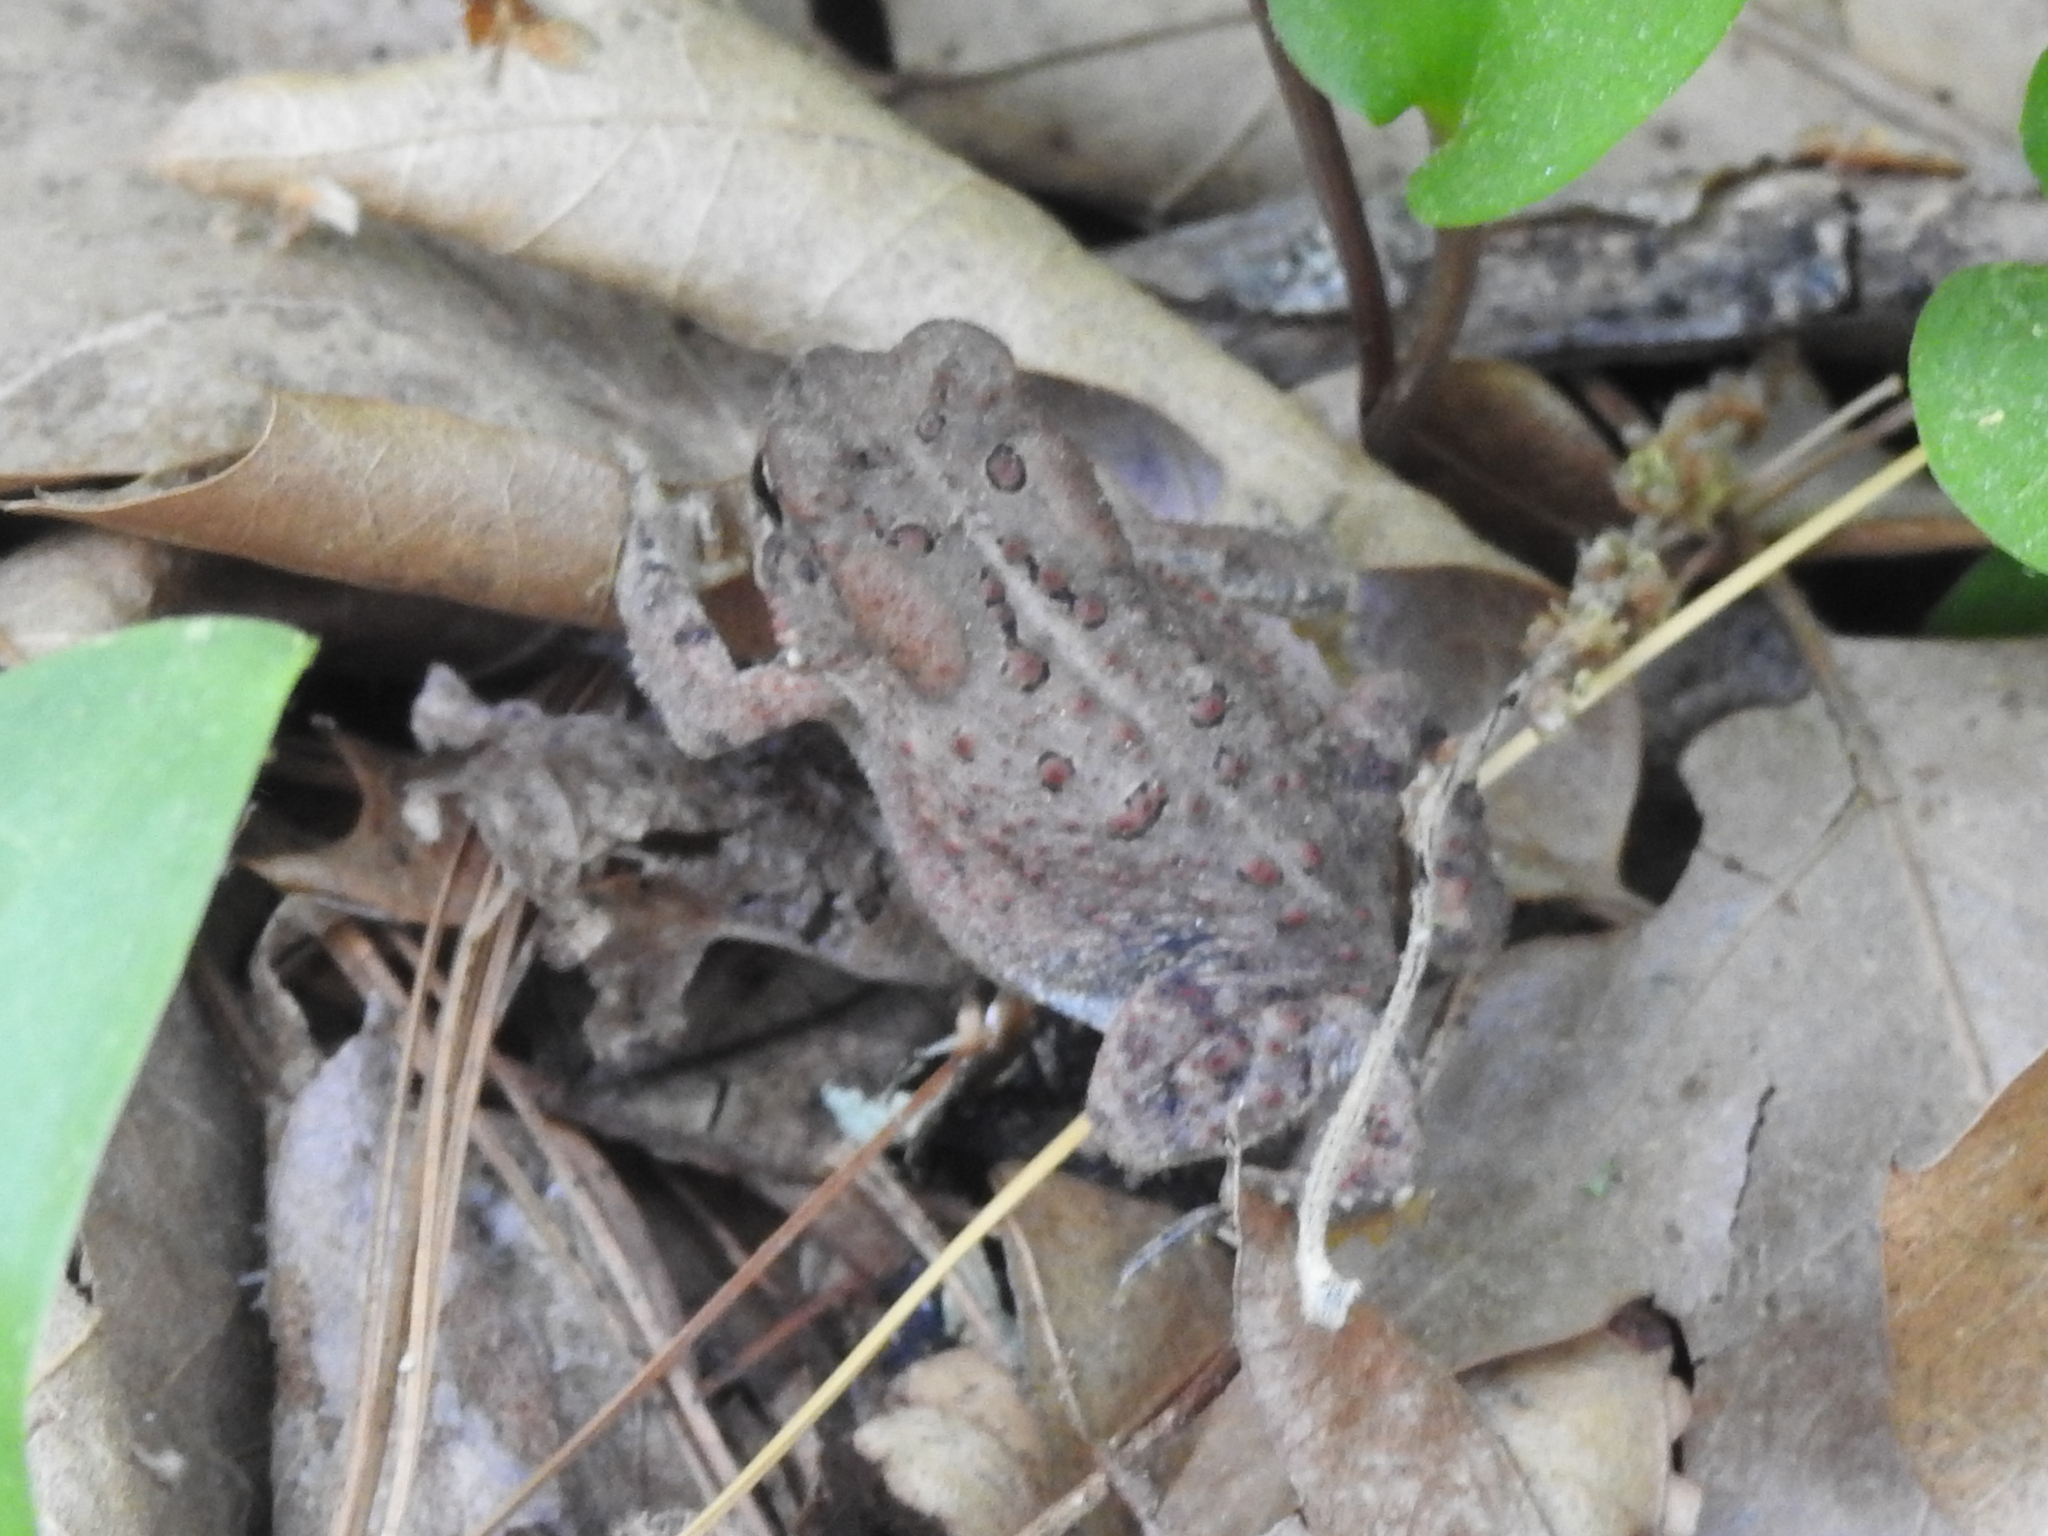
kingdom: Animalia
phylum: Chordata
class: Amphibia
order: Anura
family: Bufonidae
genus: Anaxyrus
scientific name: Anaxyrus americanus
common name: American toad
